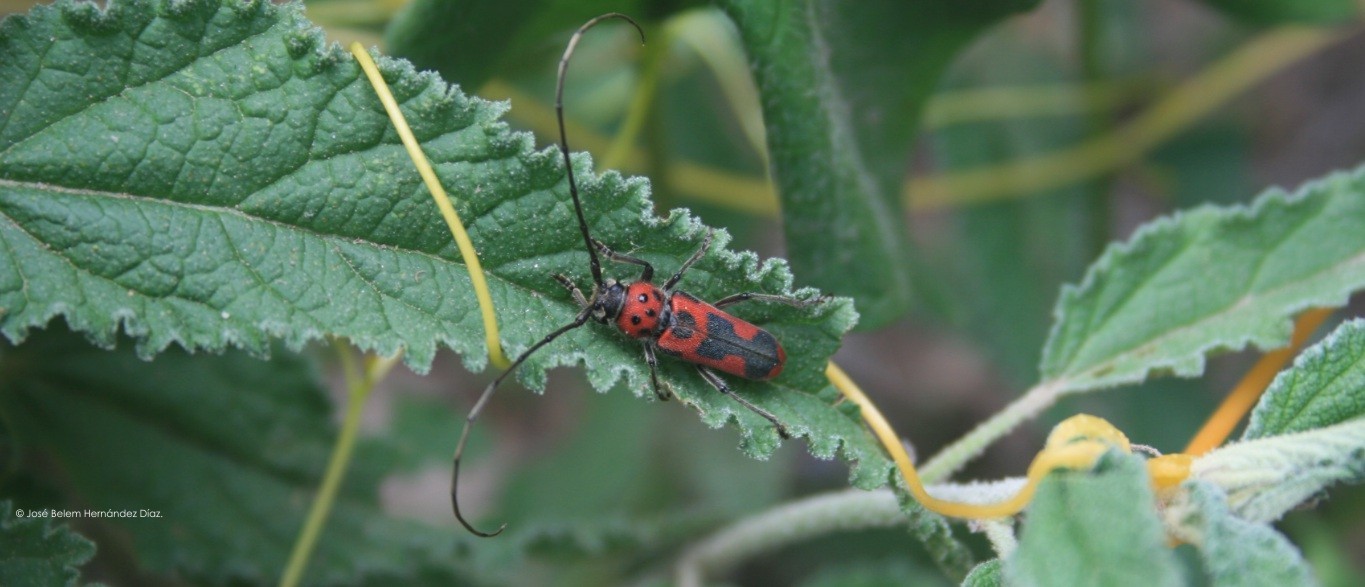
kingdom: Animalia
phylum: Arthropoda
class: Insecta
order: Coleoptera
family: Cerambycidae
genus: Tylosis
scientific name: Tylosis maculatus
